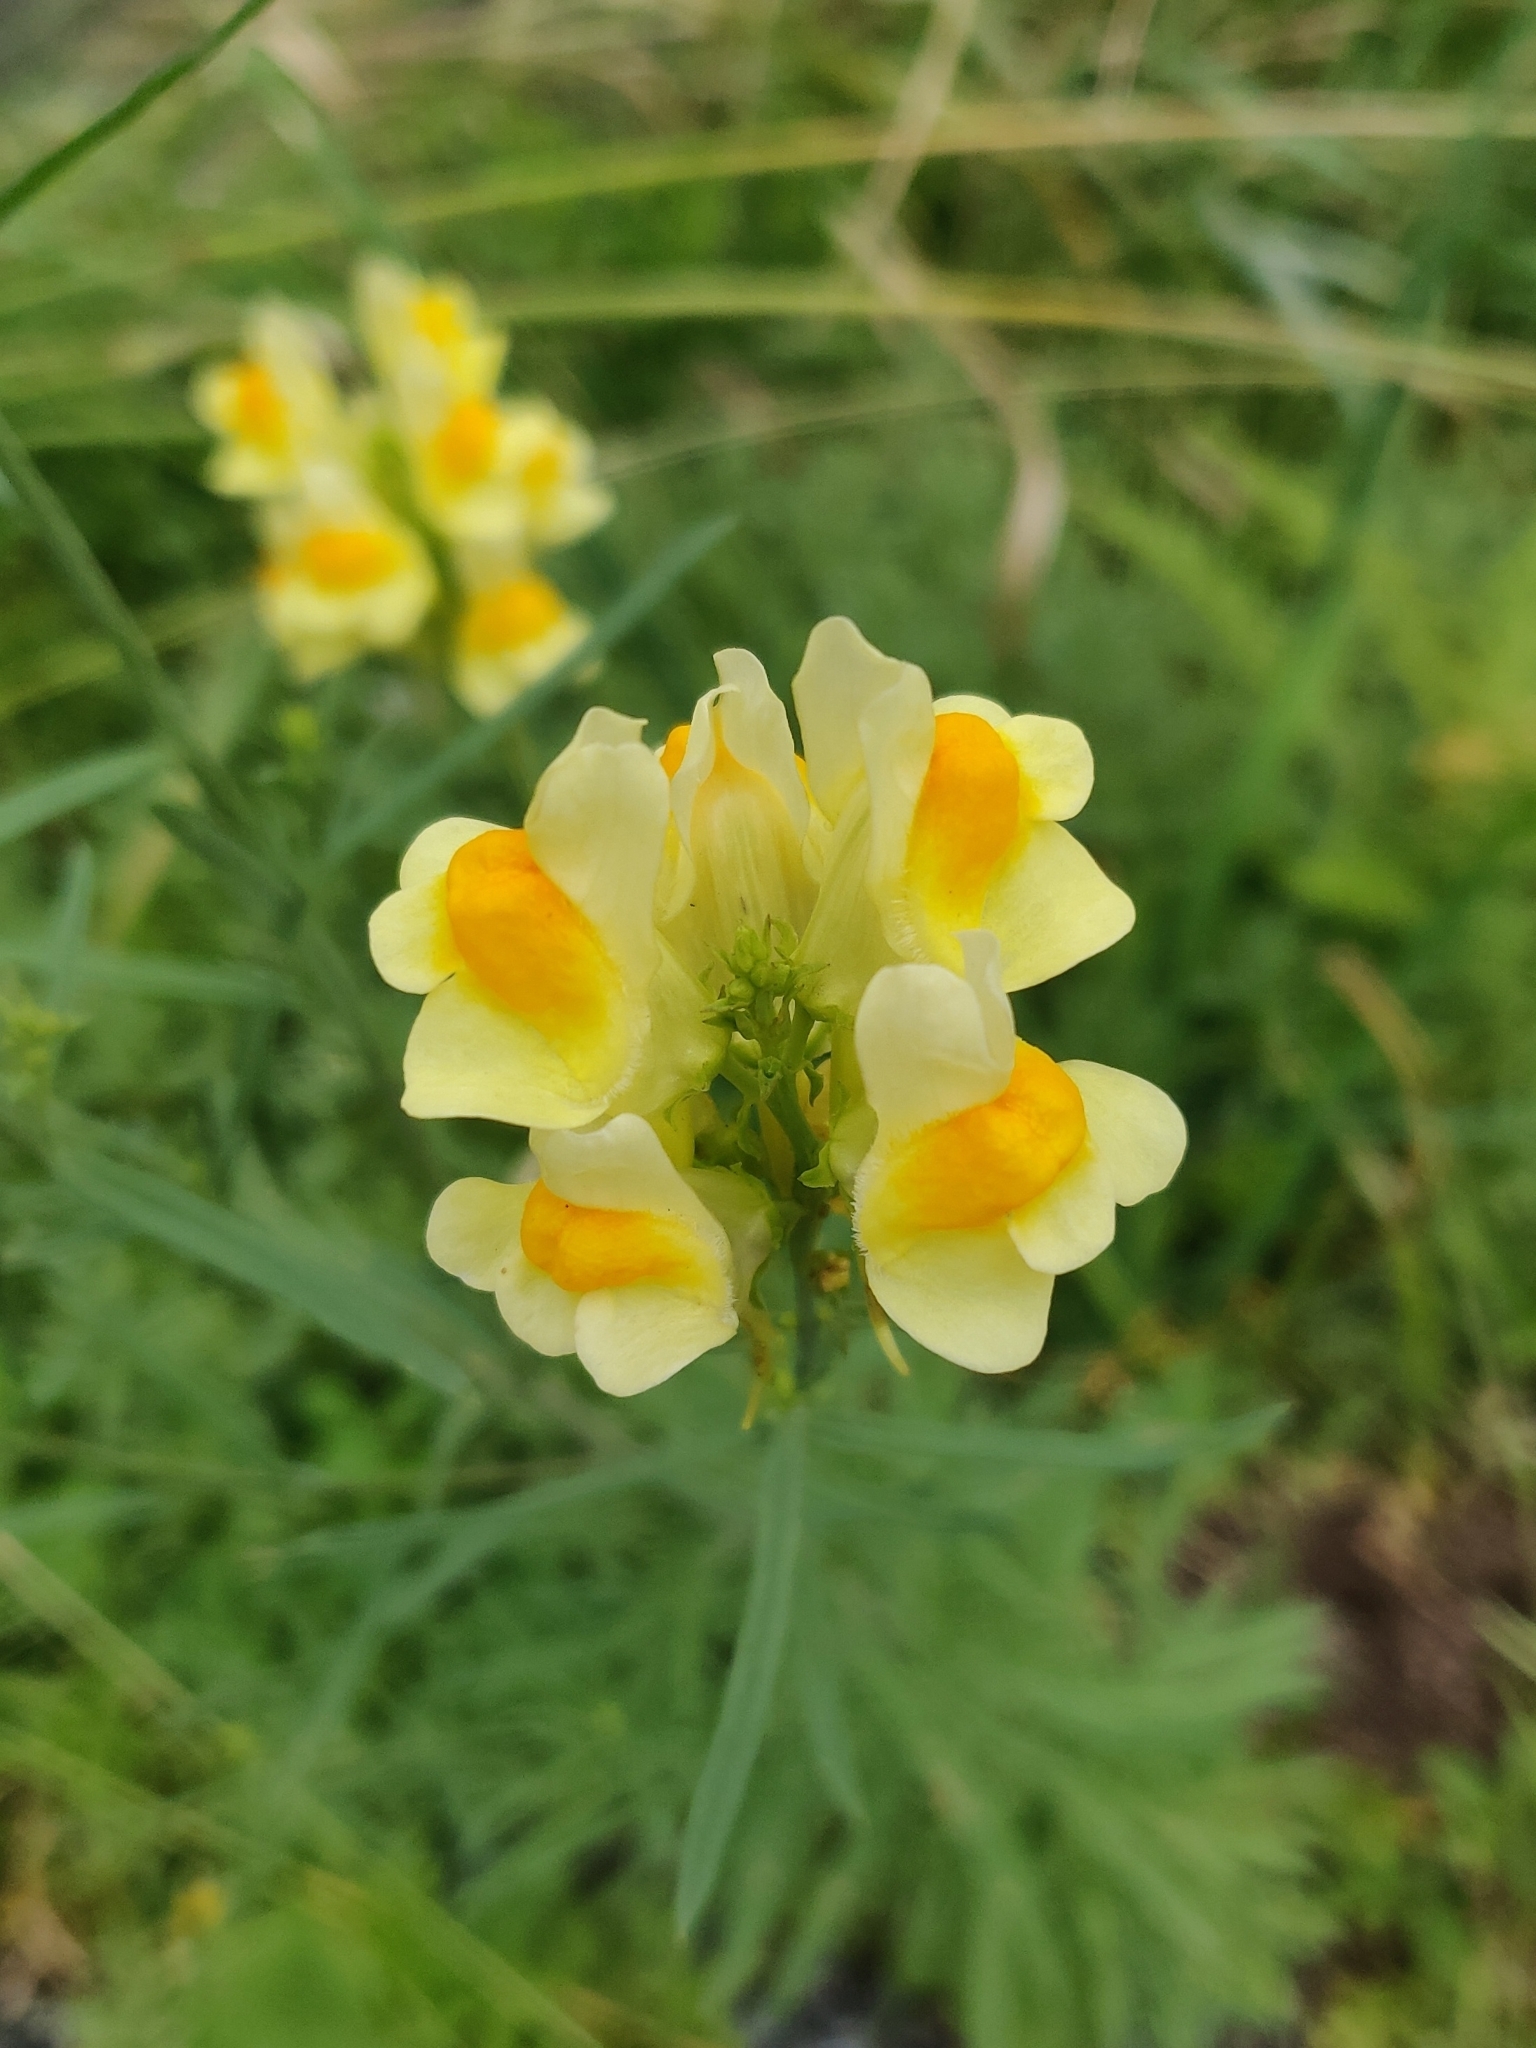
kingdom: Plantae
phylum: Tracheophyta
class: Magnoliopsida
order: Lamiales
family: Plantaginaceae
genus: Linaria
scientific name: Linaria vulgaris
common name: Butter and eggs
